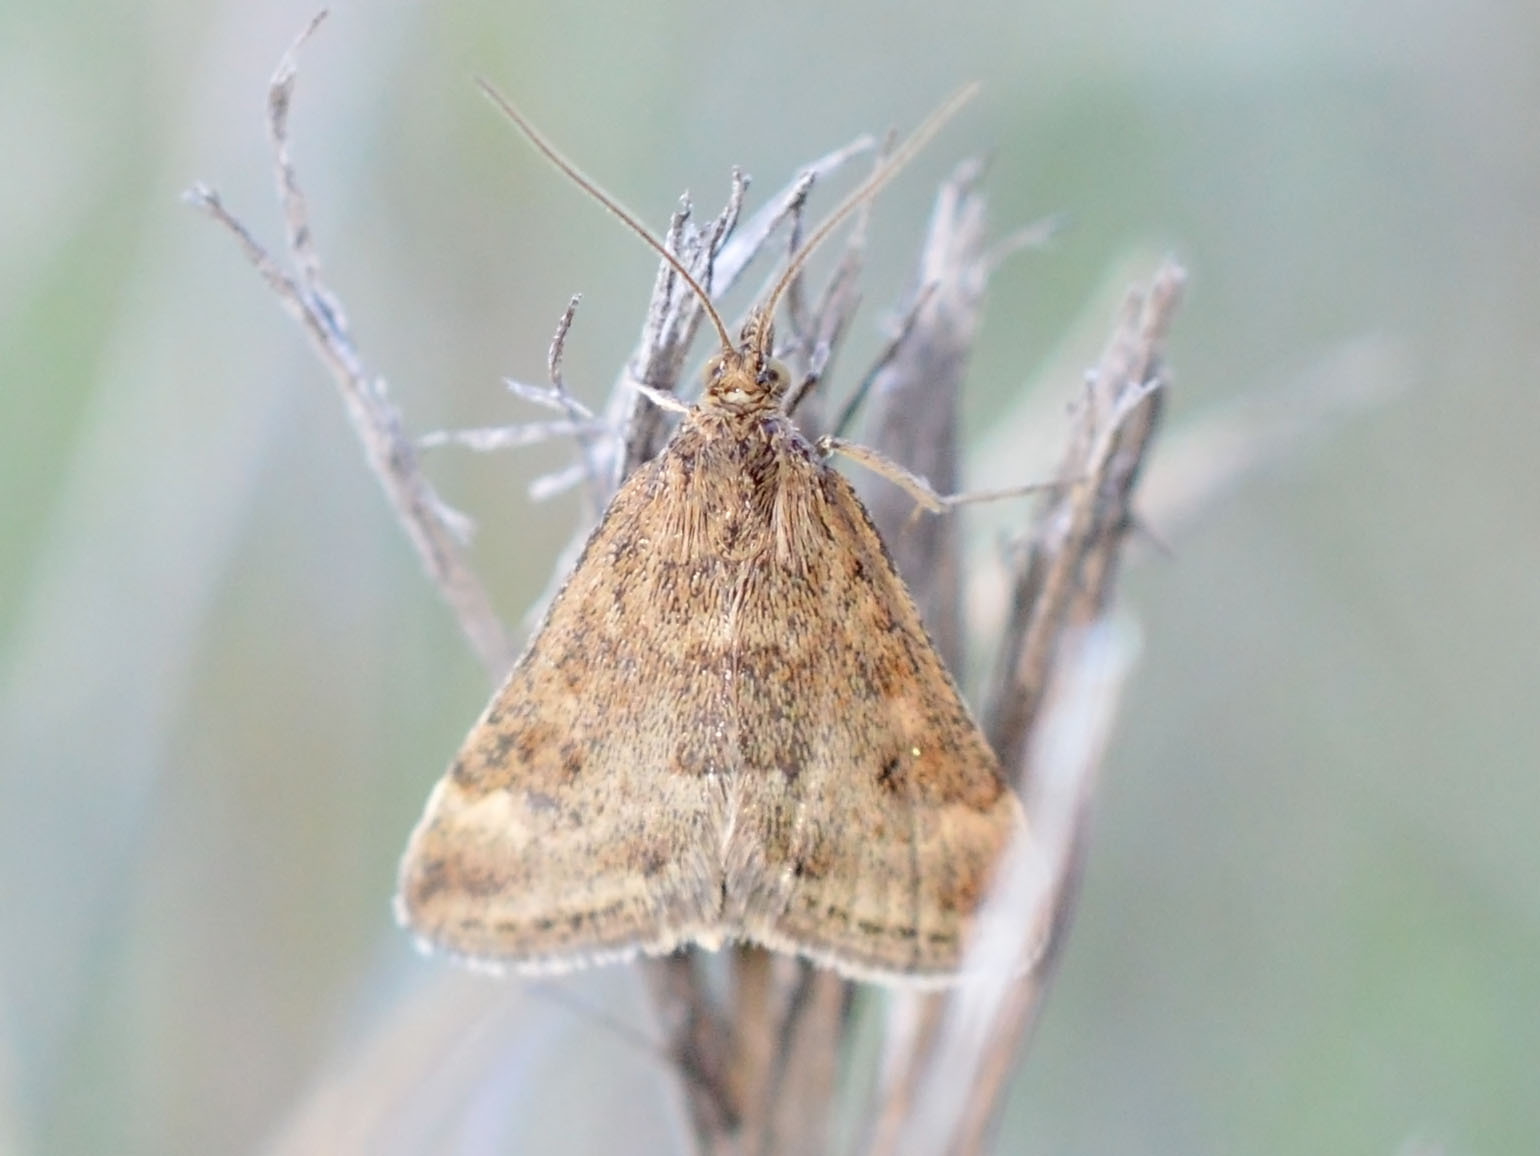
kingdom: Animalia
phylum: Arthropoda
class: Insecta
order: Lepidoptera
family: Crambidae
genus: Pyrausta
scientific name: Pyrausta despicata
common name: Straw-barred pearl
